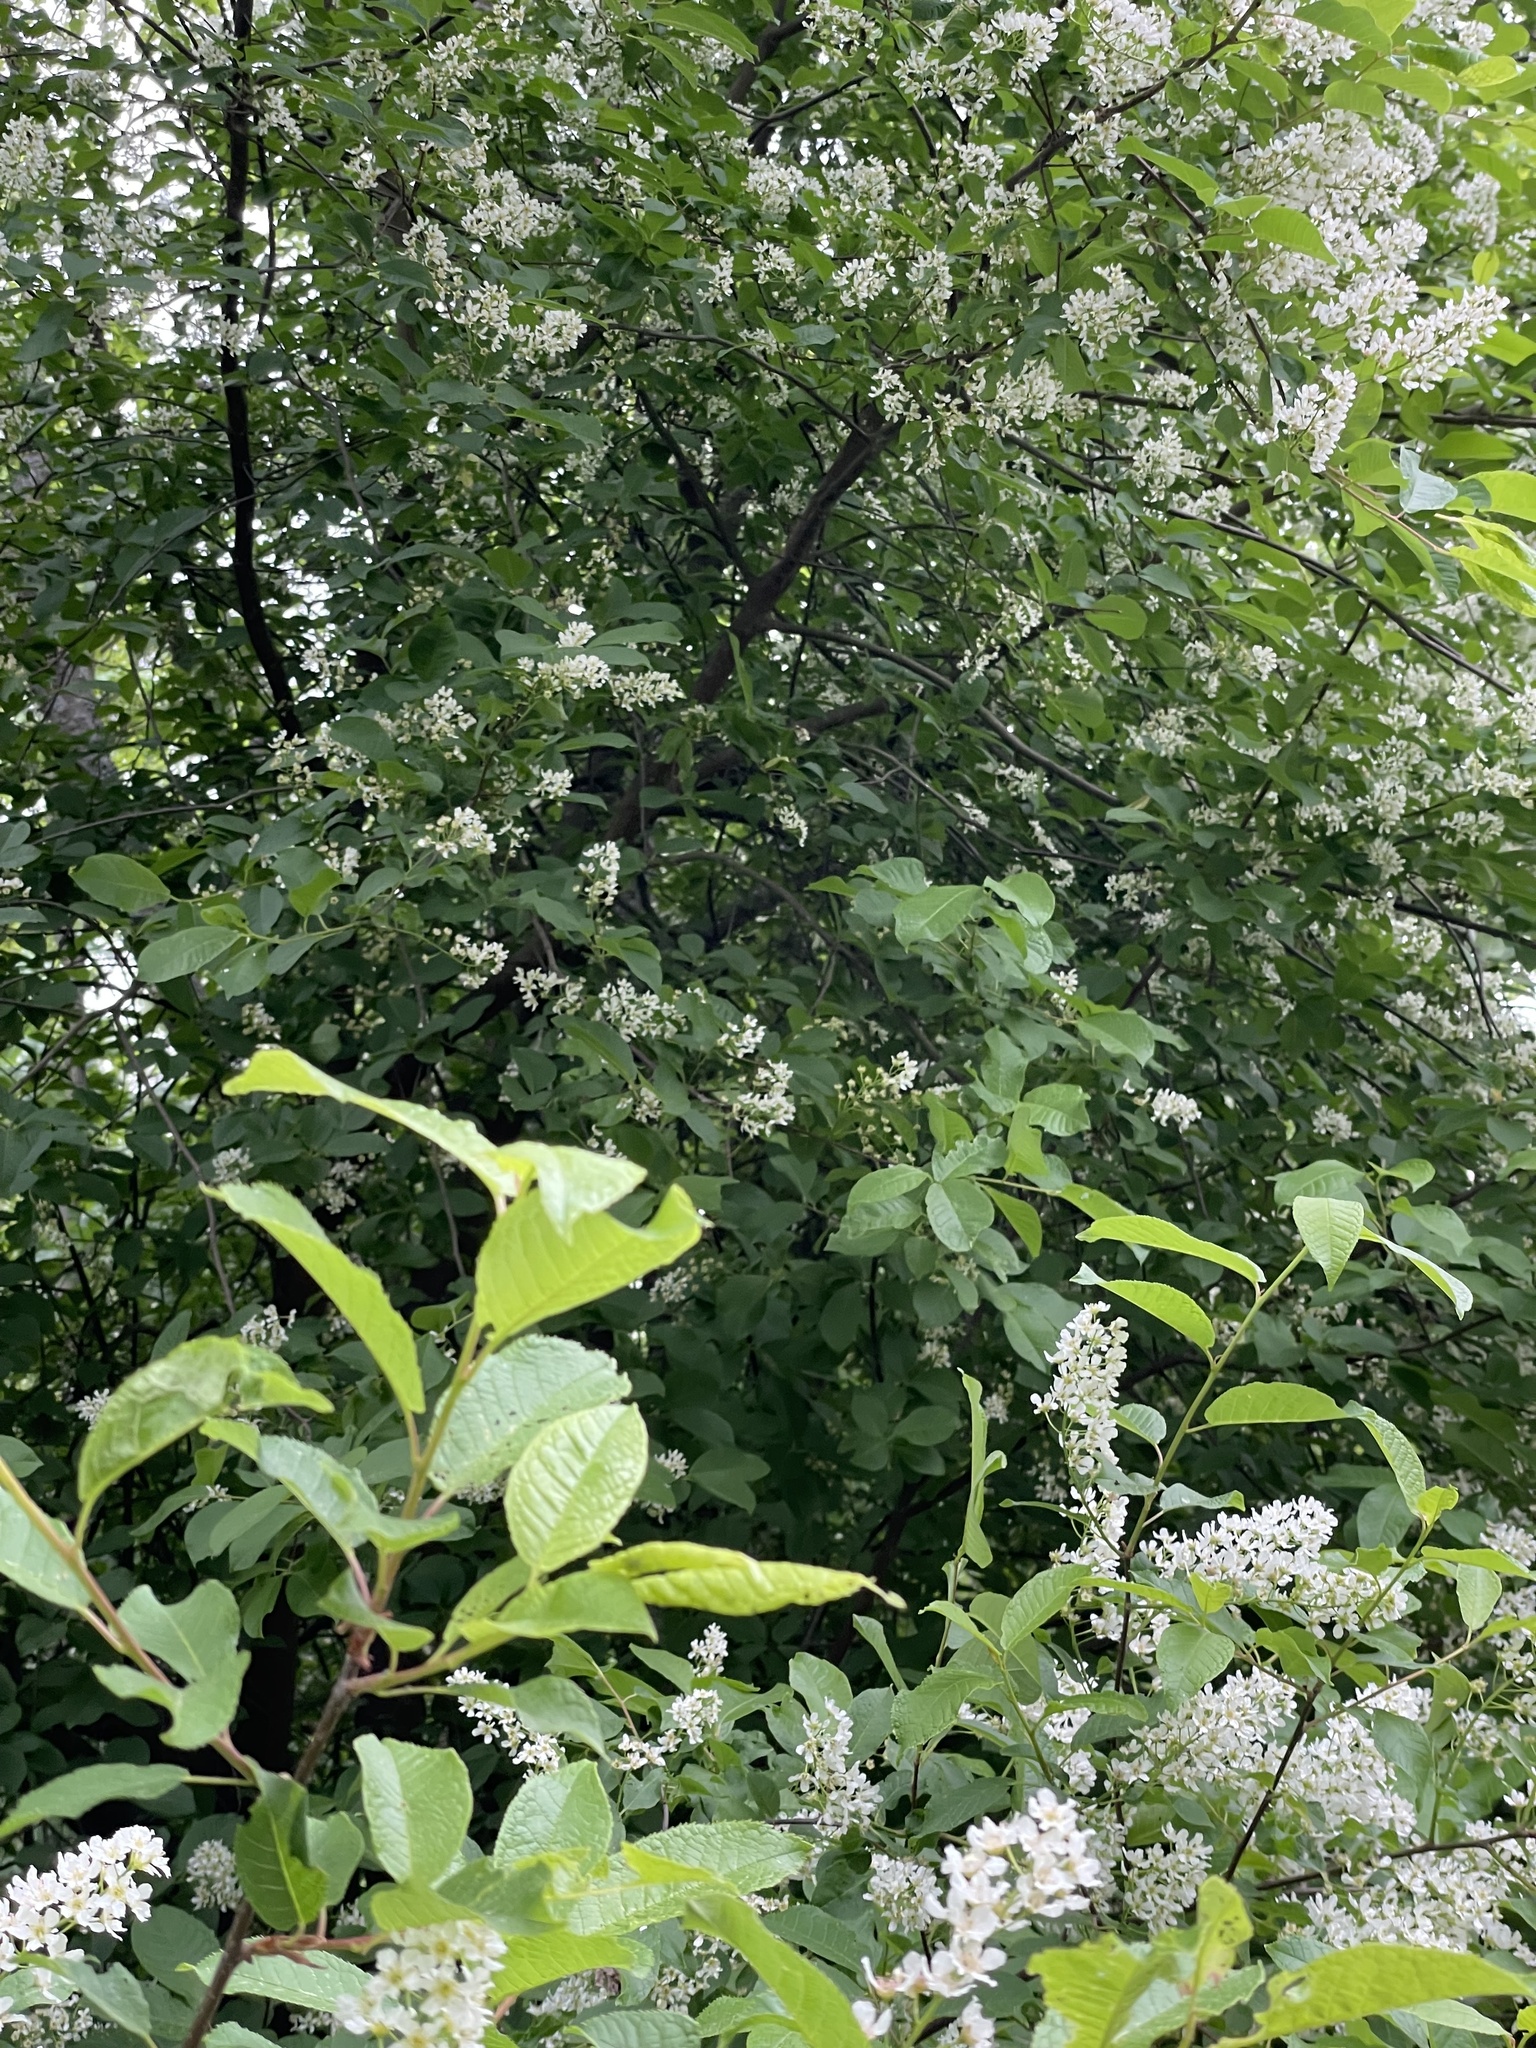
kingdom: Plantae
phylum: Tracheophyta
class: Magnoliopsida
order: Rosales
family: Rosaceae
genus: Prunus
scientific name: Prunus padus
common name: Bird cherry
